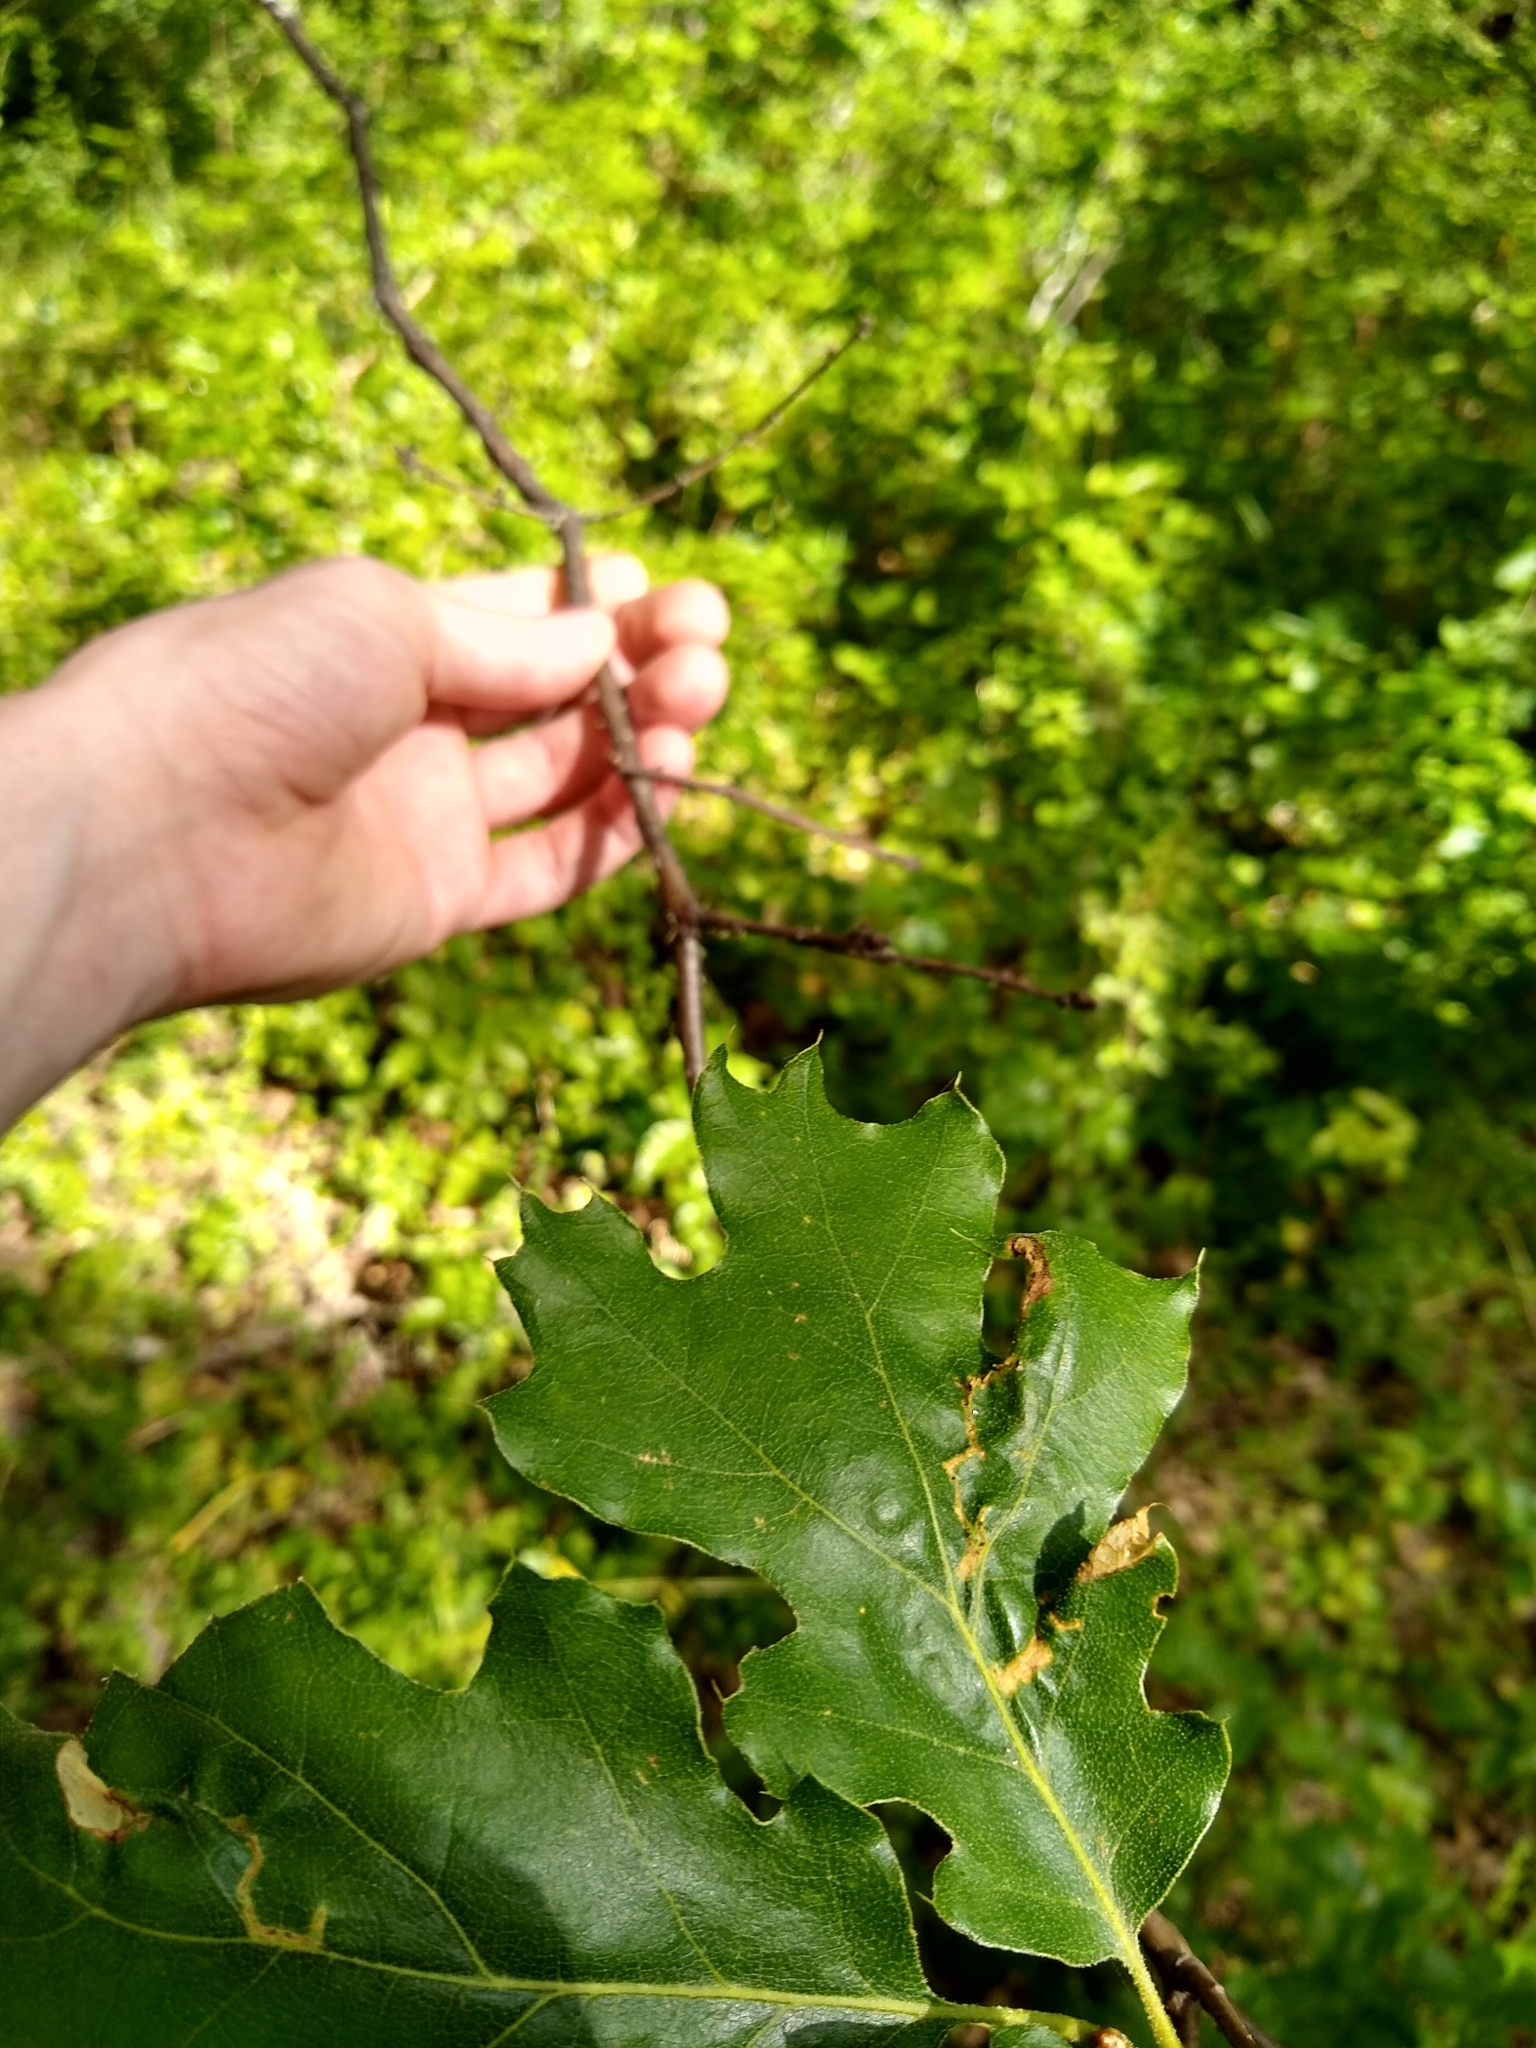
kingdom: Plantae
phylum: Tracheophyta
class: Magnoliopsida
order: Fagales
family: Fagaceae
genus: Quercus
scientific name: Quercus kelloggii
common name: California black oak
